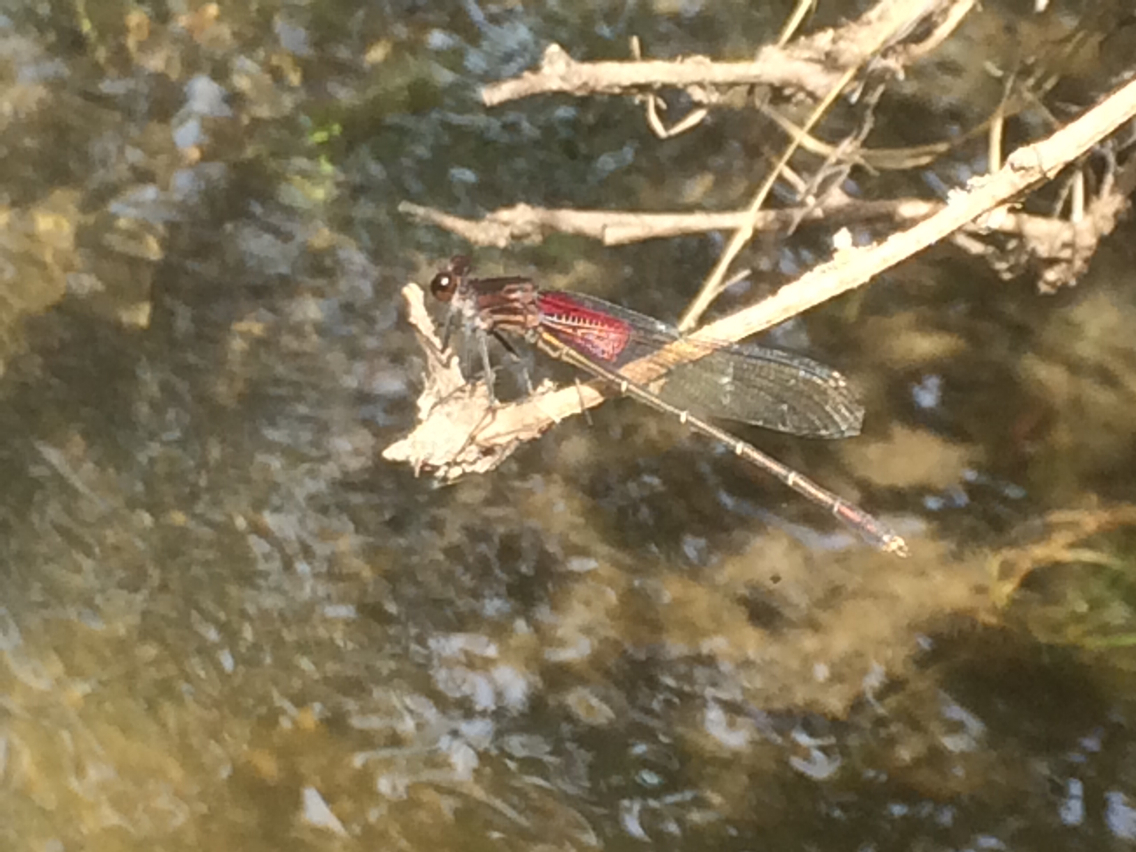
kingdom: Animalia
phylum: Arthropoda
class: Insecta
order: Odonata
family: Calopterygidae
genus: Hetaerina
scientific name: Hetaerina americana
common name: American rubyspot
